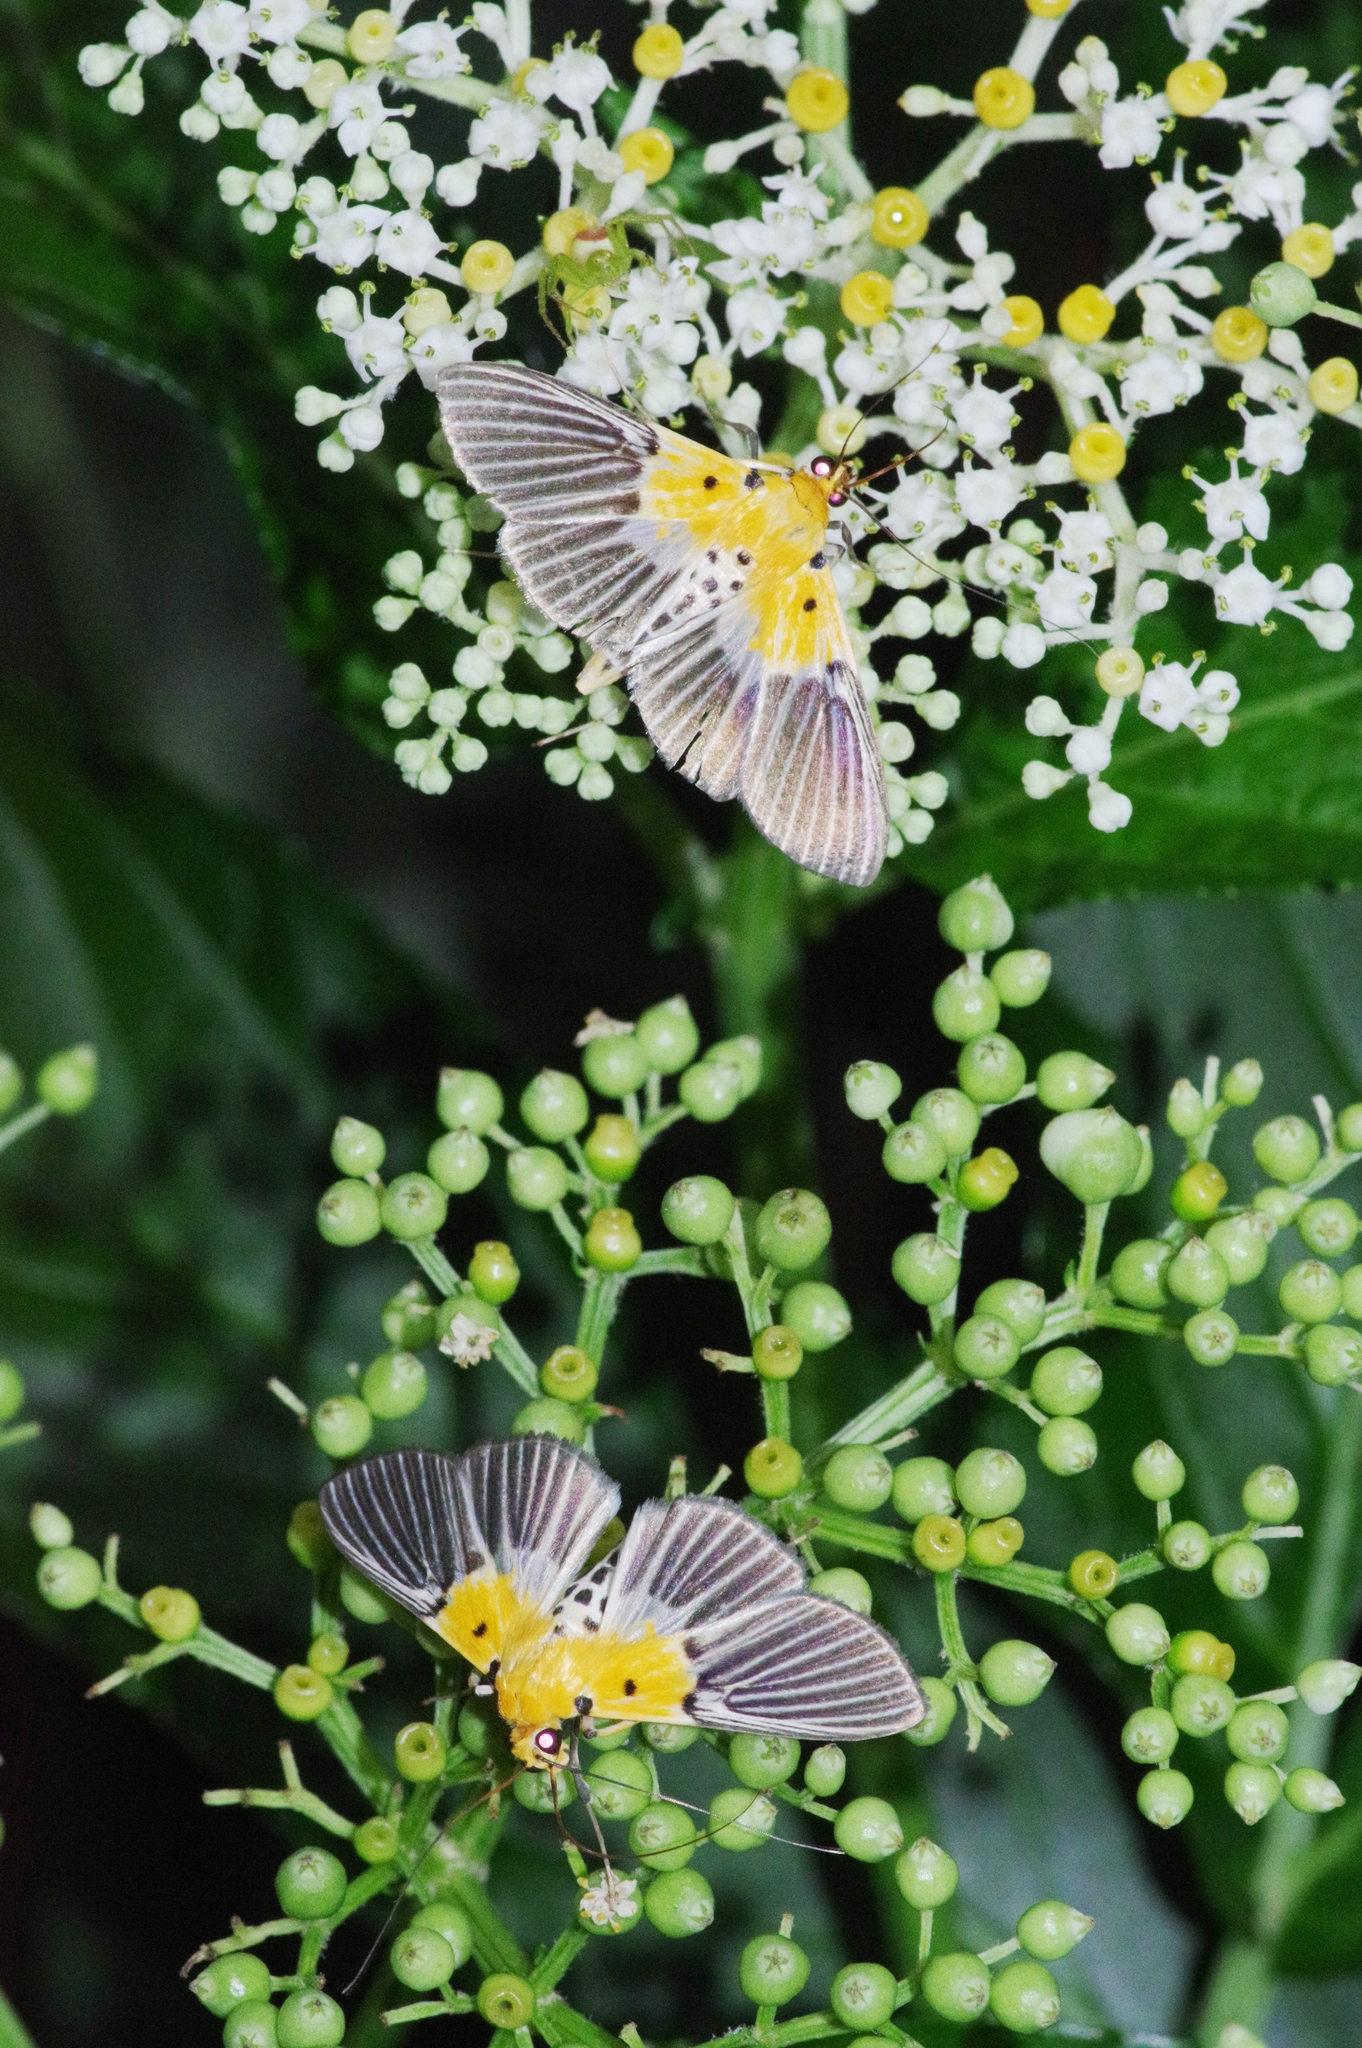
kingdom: Animalia
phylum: Arthropoda
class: Insecta
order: Lepidoptera
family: Crambidae
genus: Nevrina
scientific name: Nevrina procopia
